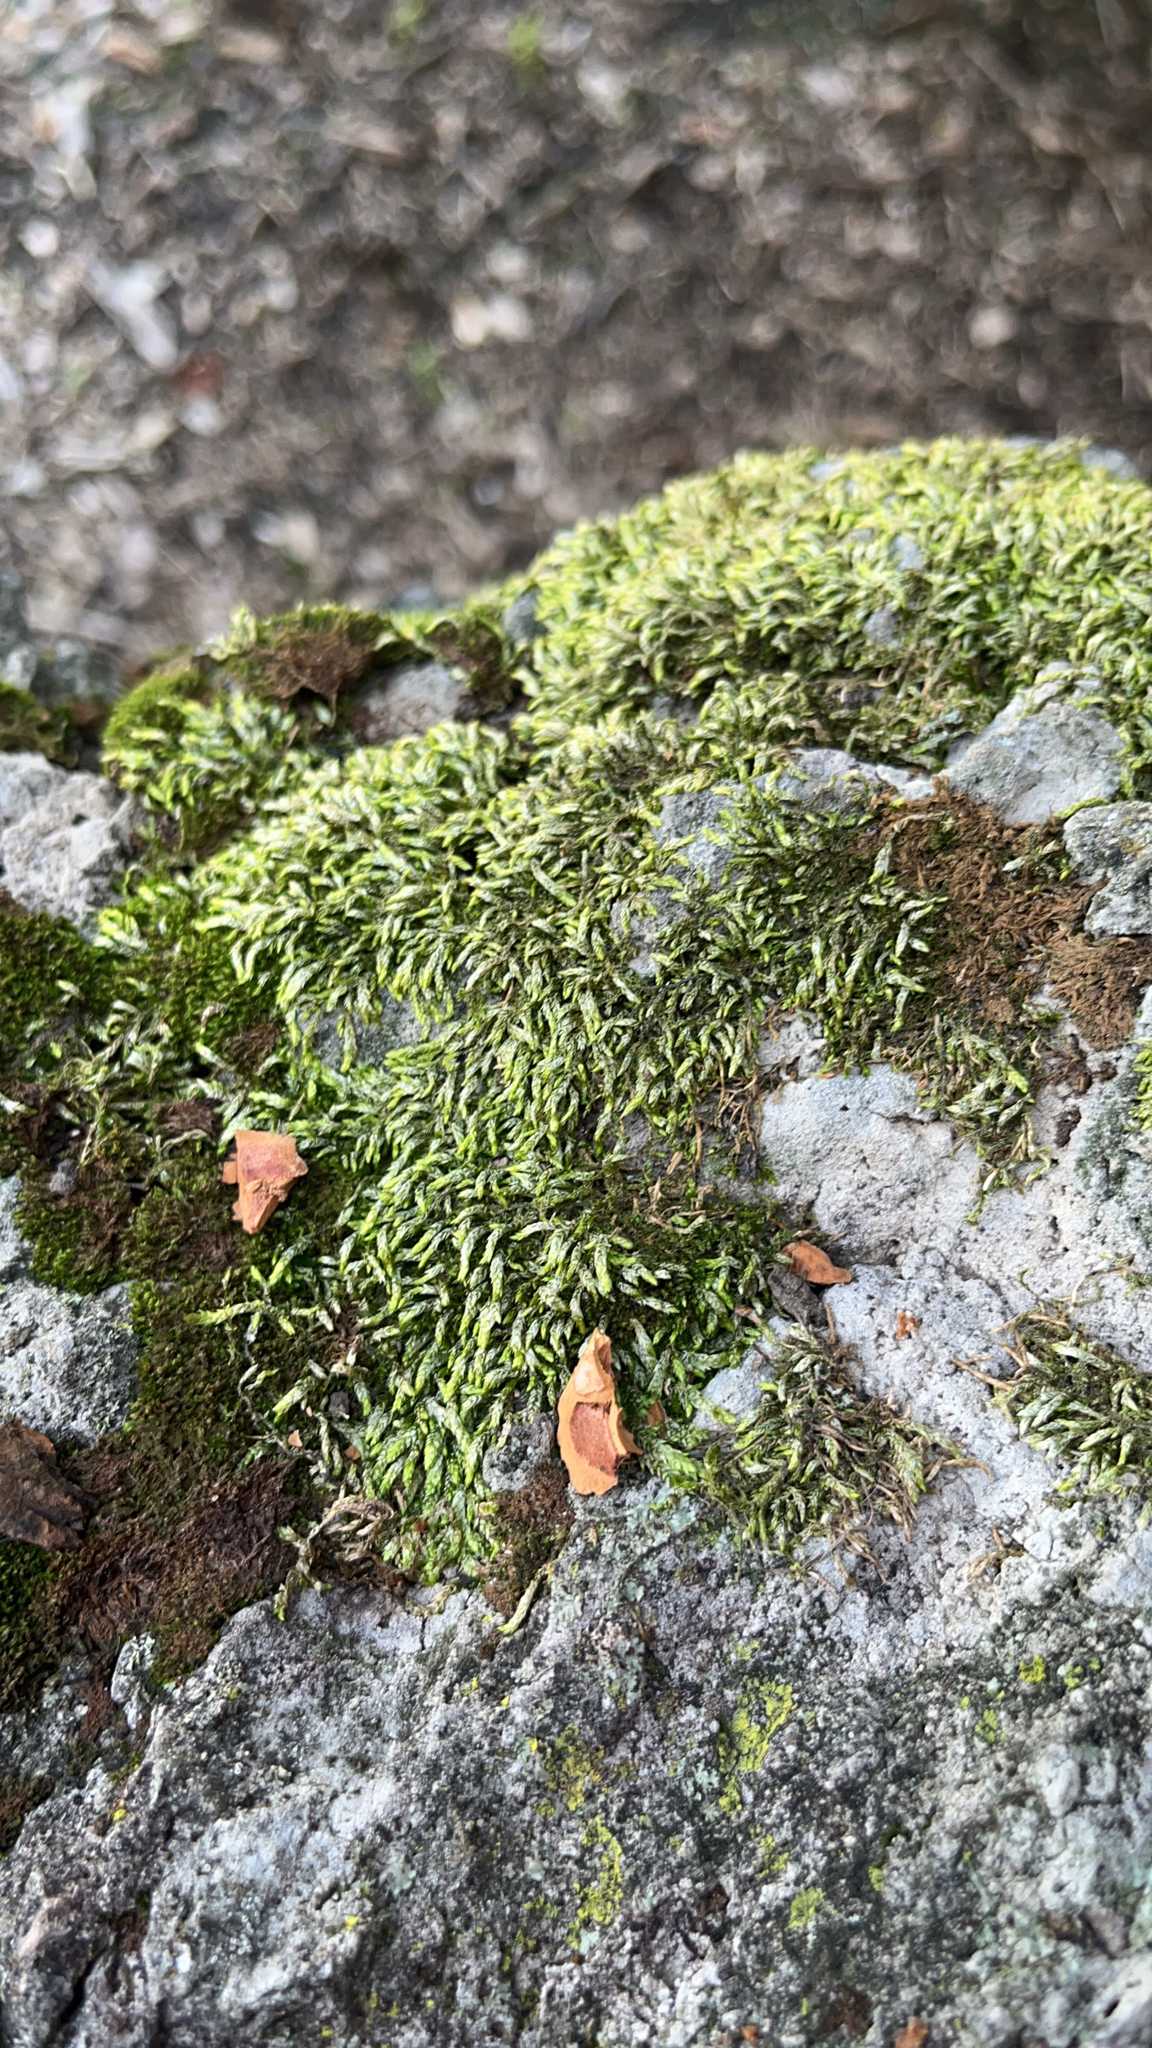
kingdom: Plantae
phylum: Bryophyta
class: Bryopsida
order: Hypnales
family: Entodontaceae
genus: Entodon
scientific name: Entodon seductrix
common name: Round-stemmed entodon moss
